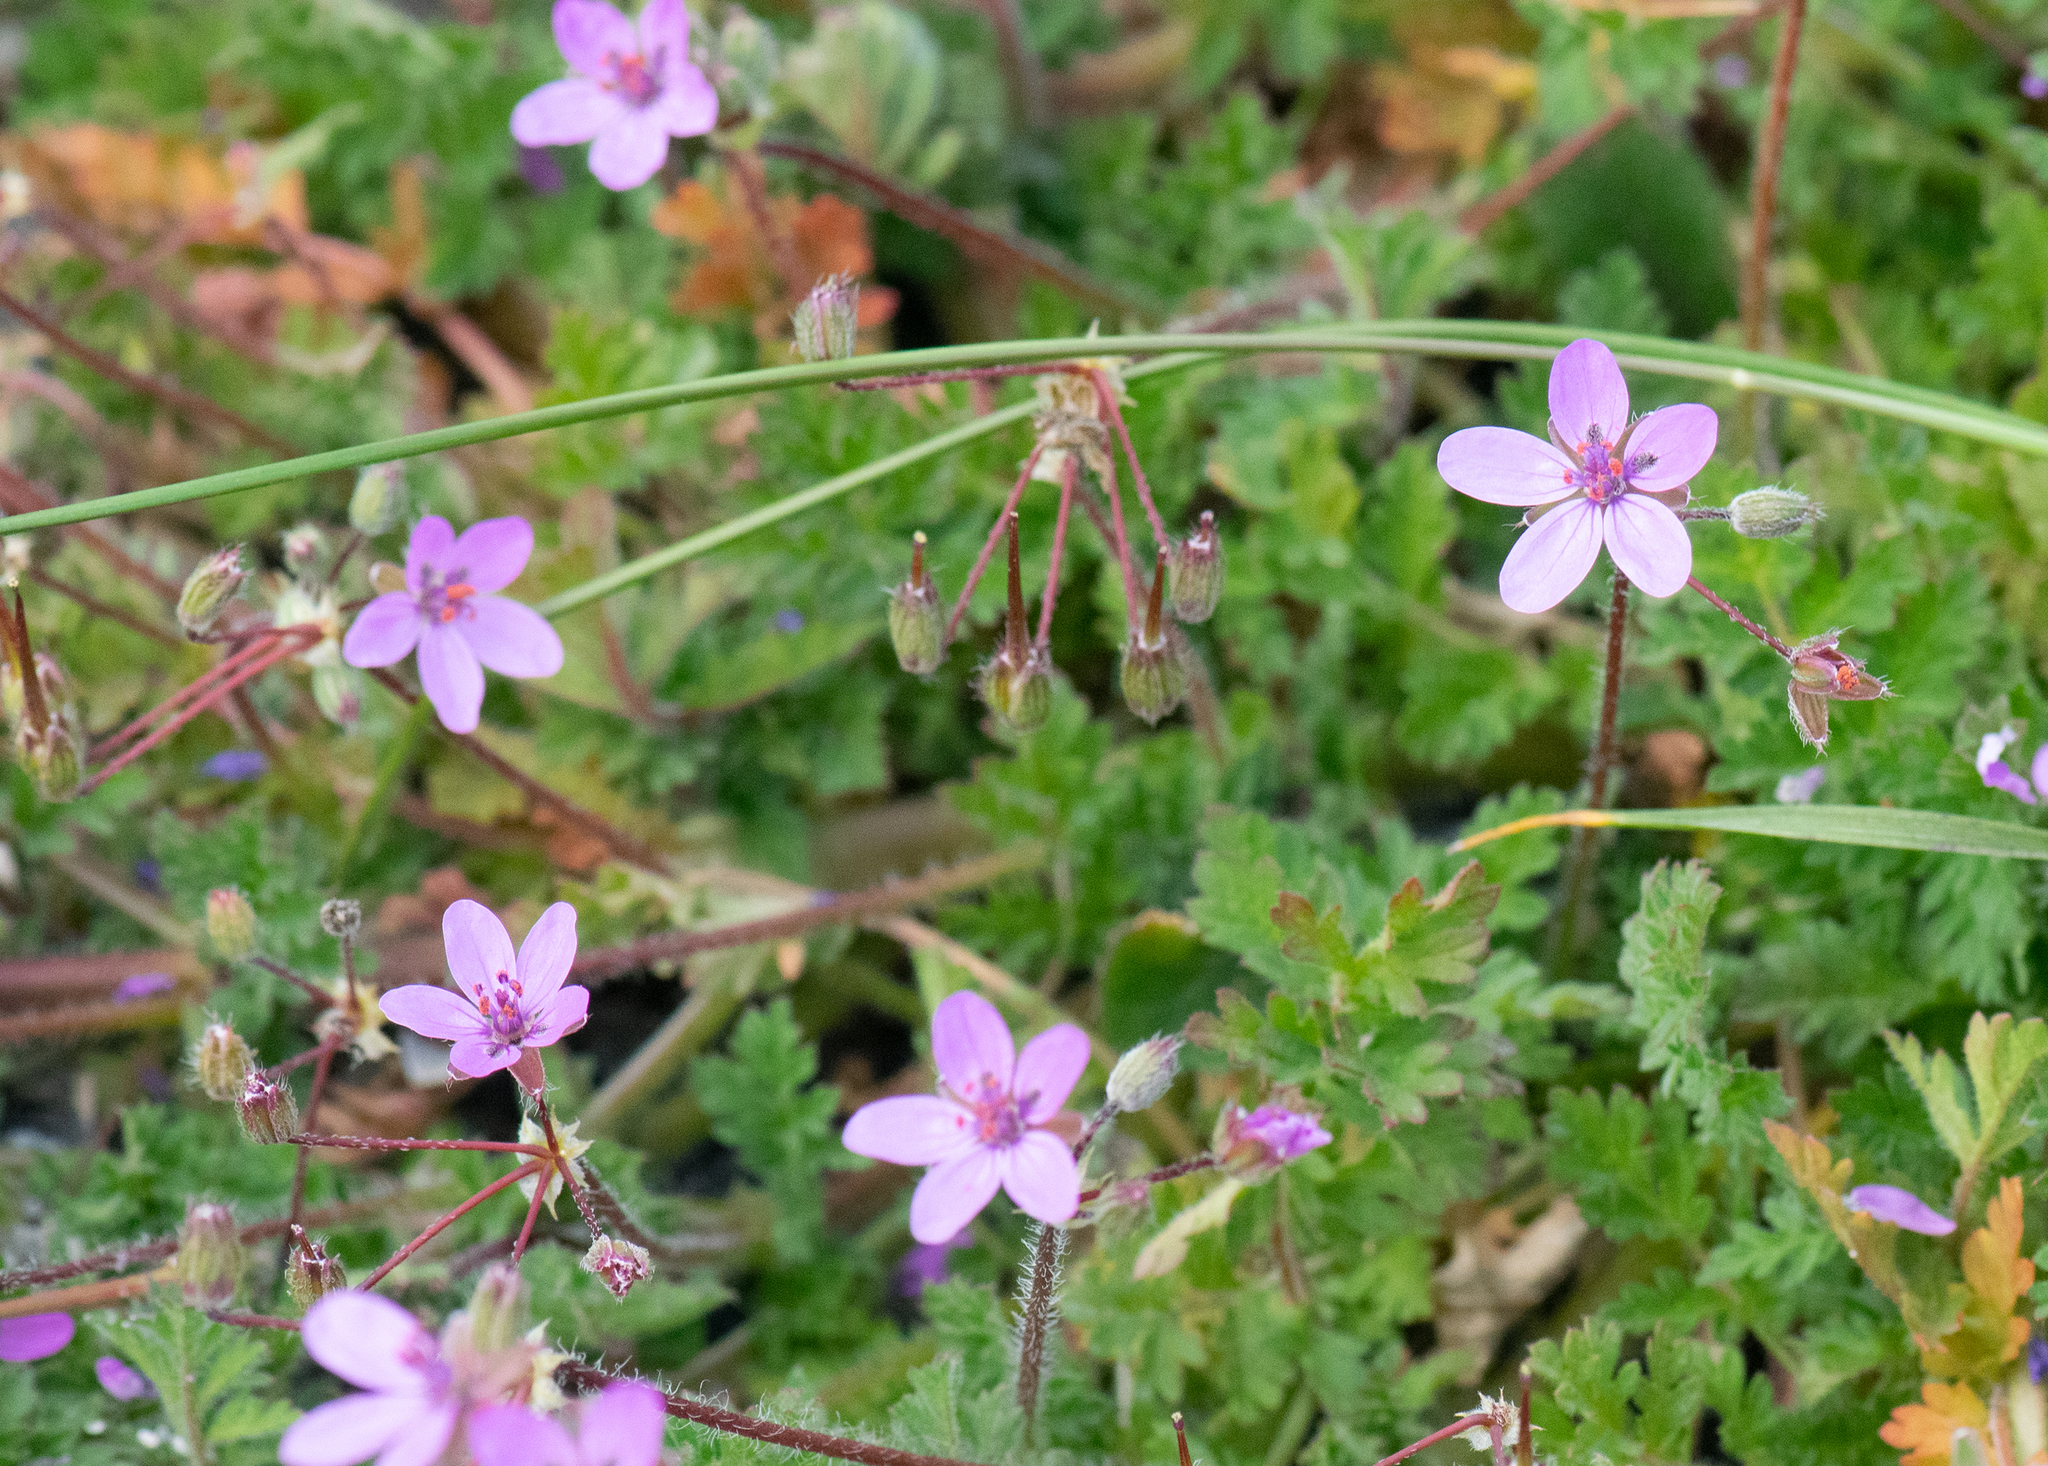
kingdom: Plantae
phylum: Tracheophyta
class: Magnoliopsida
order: Geraniales
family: Geraniaceae
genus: Erodium
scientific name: Erodium cicutarium
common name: Common stork's-bill
